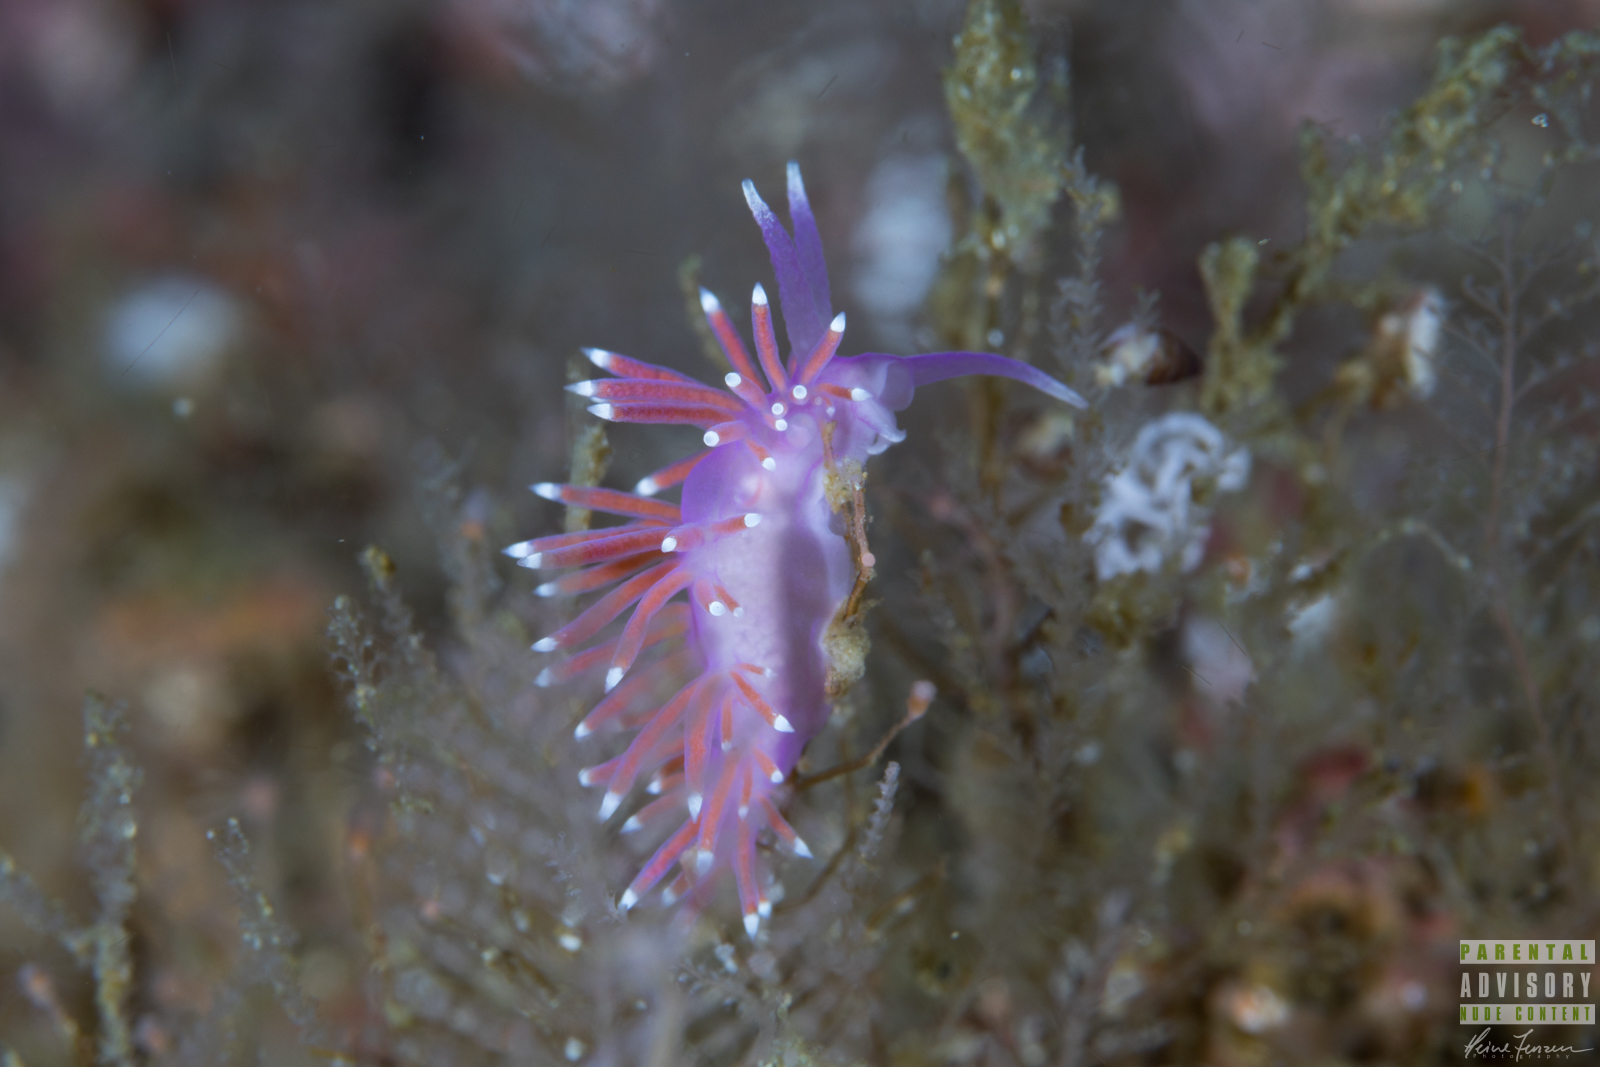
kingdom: Animalia
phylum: Mollusca
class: Gastropoda
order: Nudibranchia
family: Flabellinidae
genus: Edmundsella
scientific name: Edmundsella pedata
